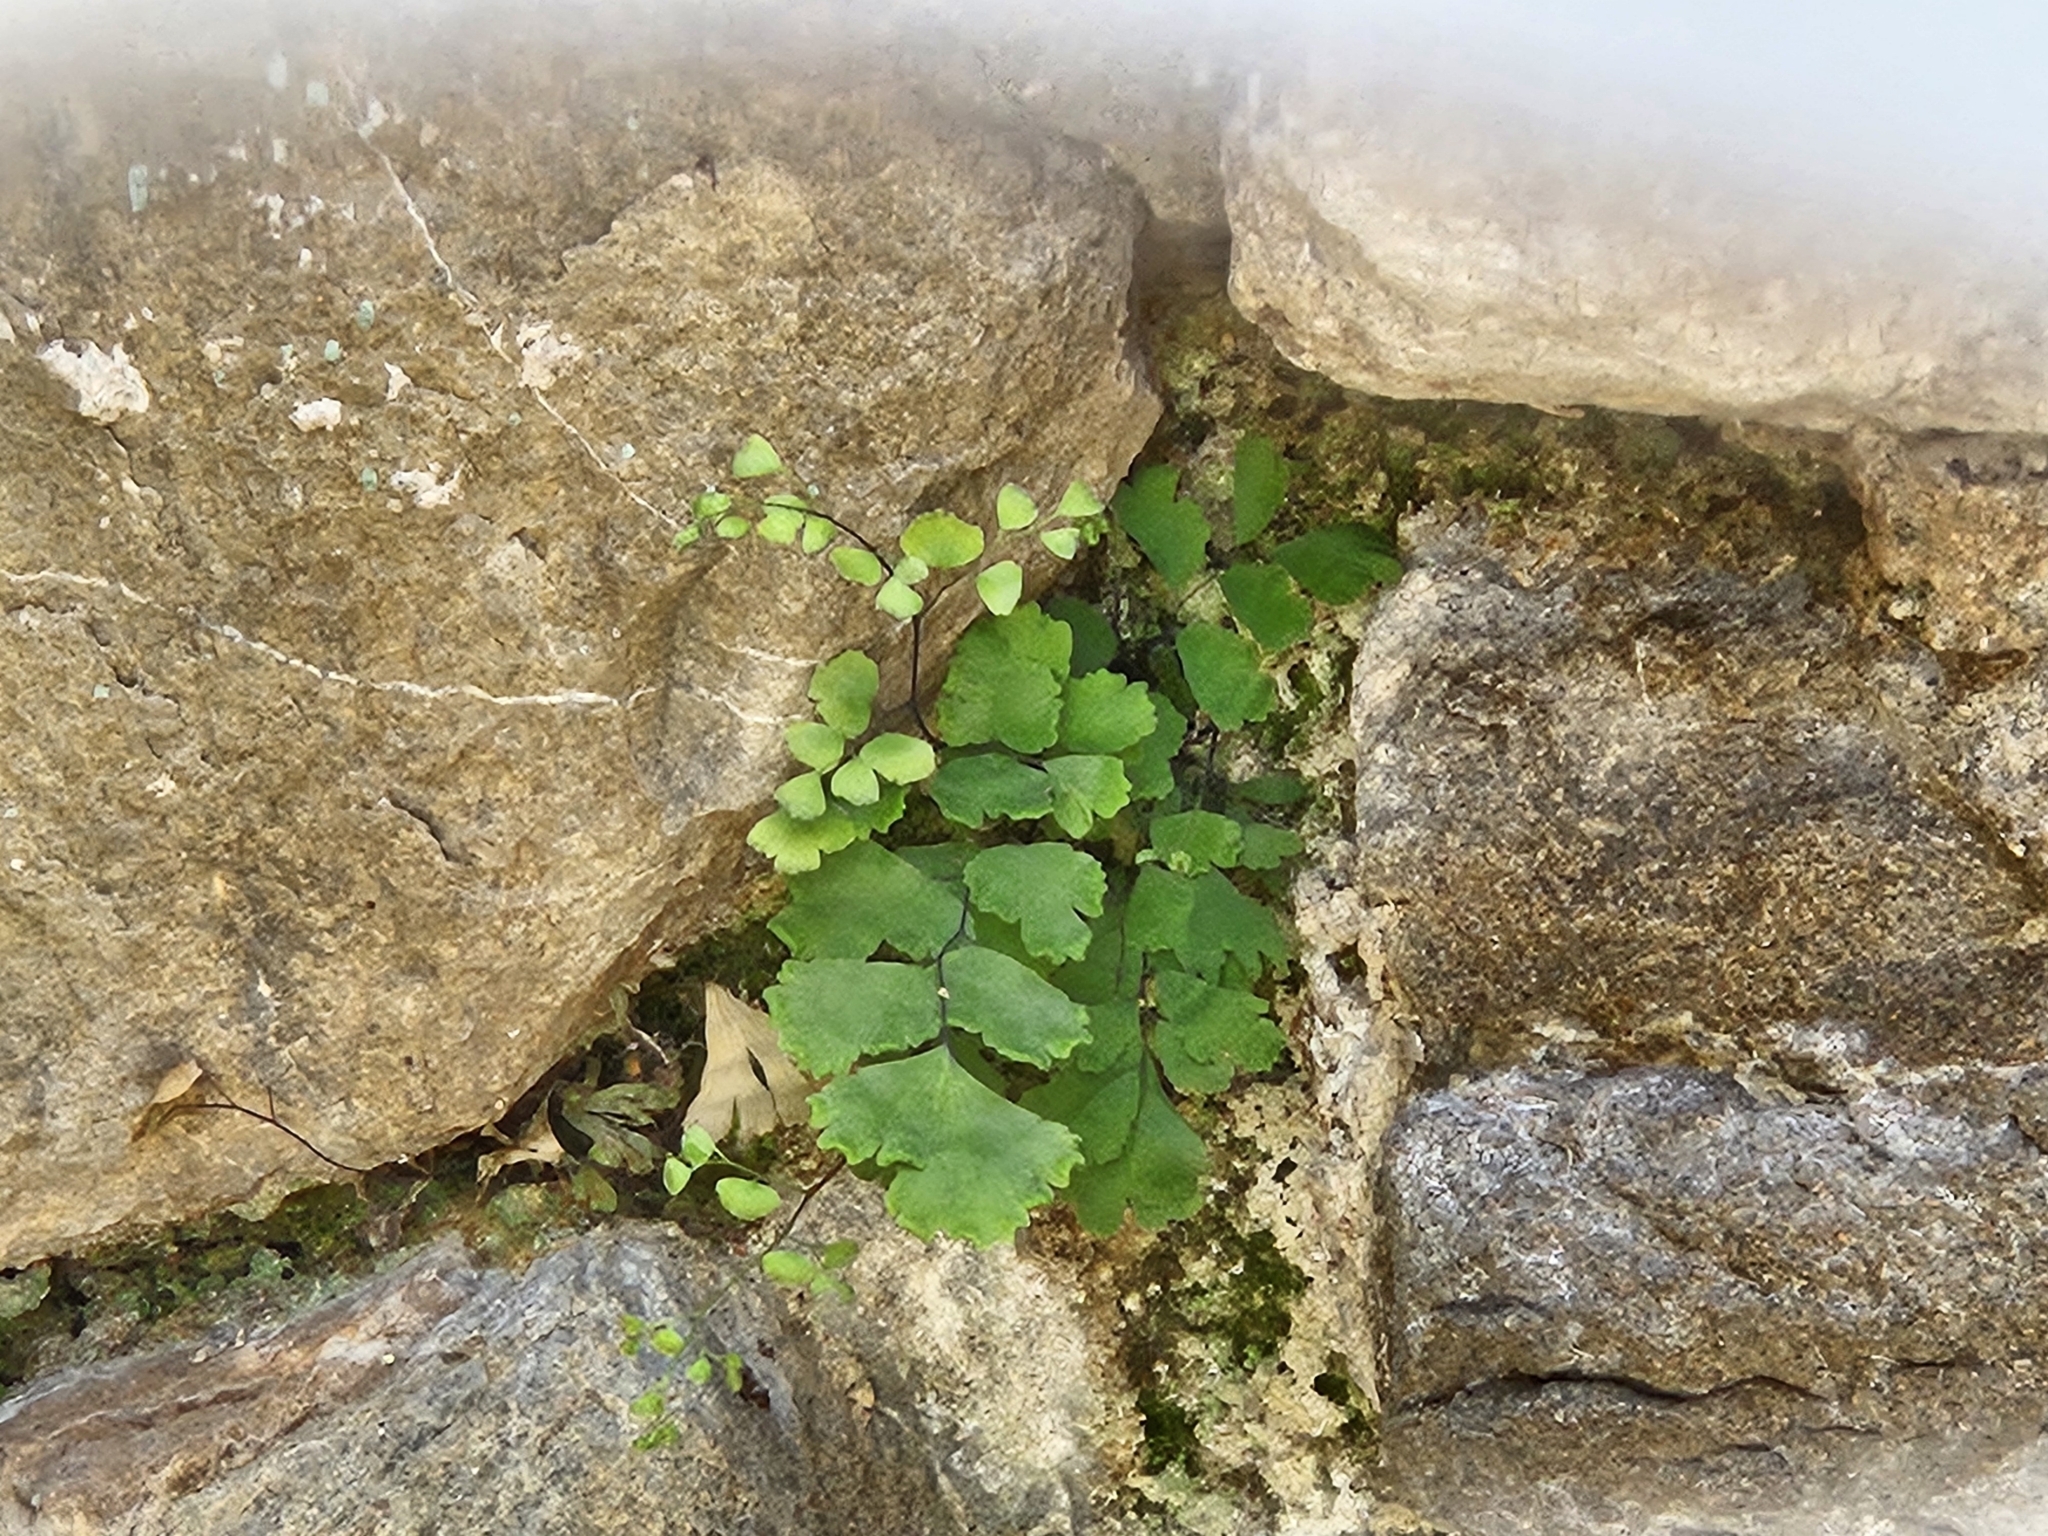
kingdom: Plantae
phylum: Tracheophyta
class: Polypodiopsida
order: Polypodiales
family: Pteridaceae
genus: Adiantum
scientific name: Adiantum capillus-veneris
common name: Maidenhair fern
